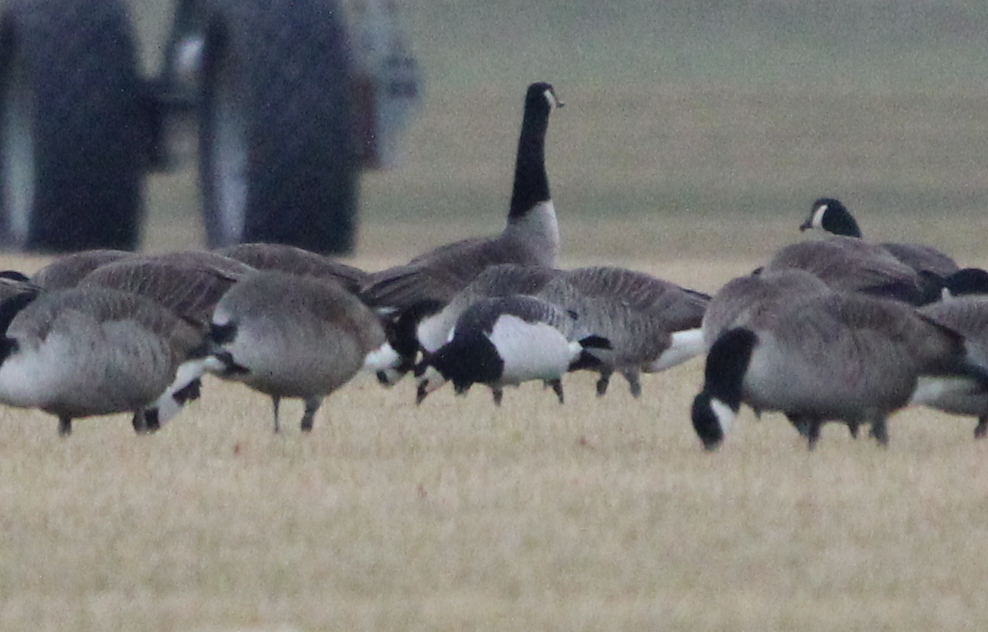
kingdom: Animalia
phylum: Chordata
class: Aves
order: Anseriformes
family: Anatidae
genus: Branta
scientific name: Branta leucopsis
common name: Barnacle goose
